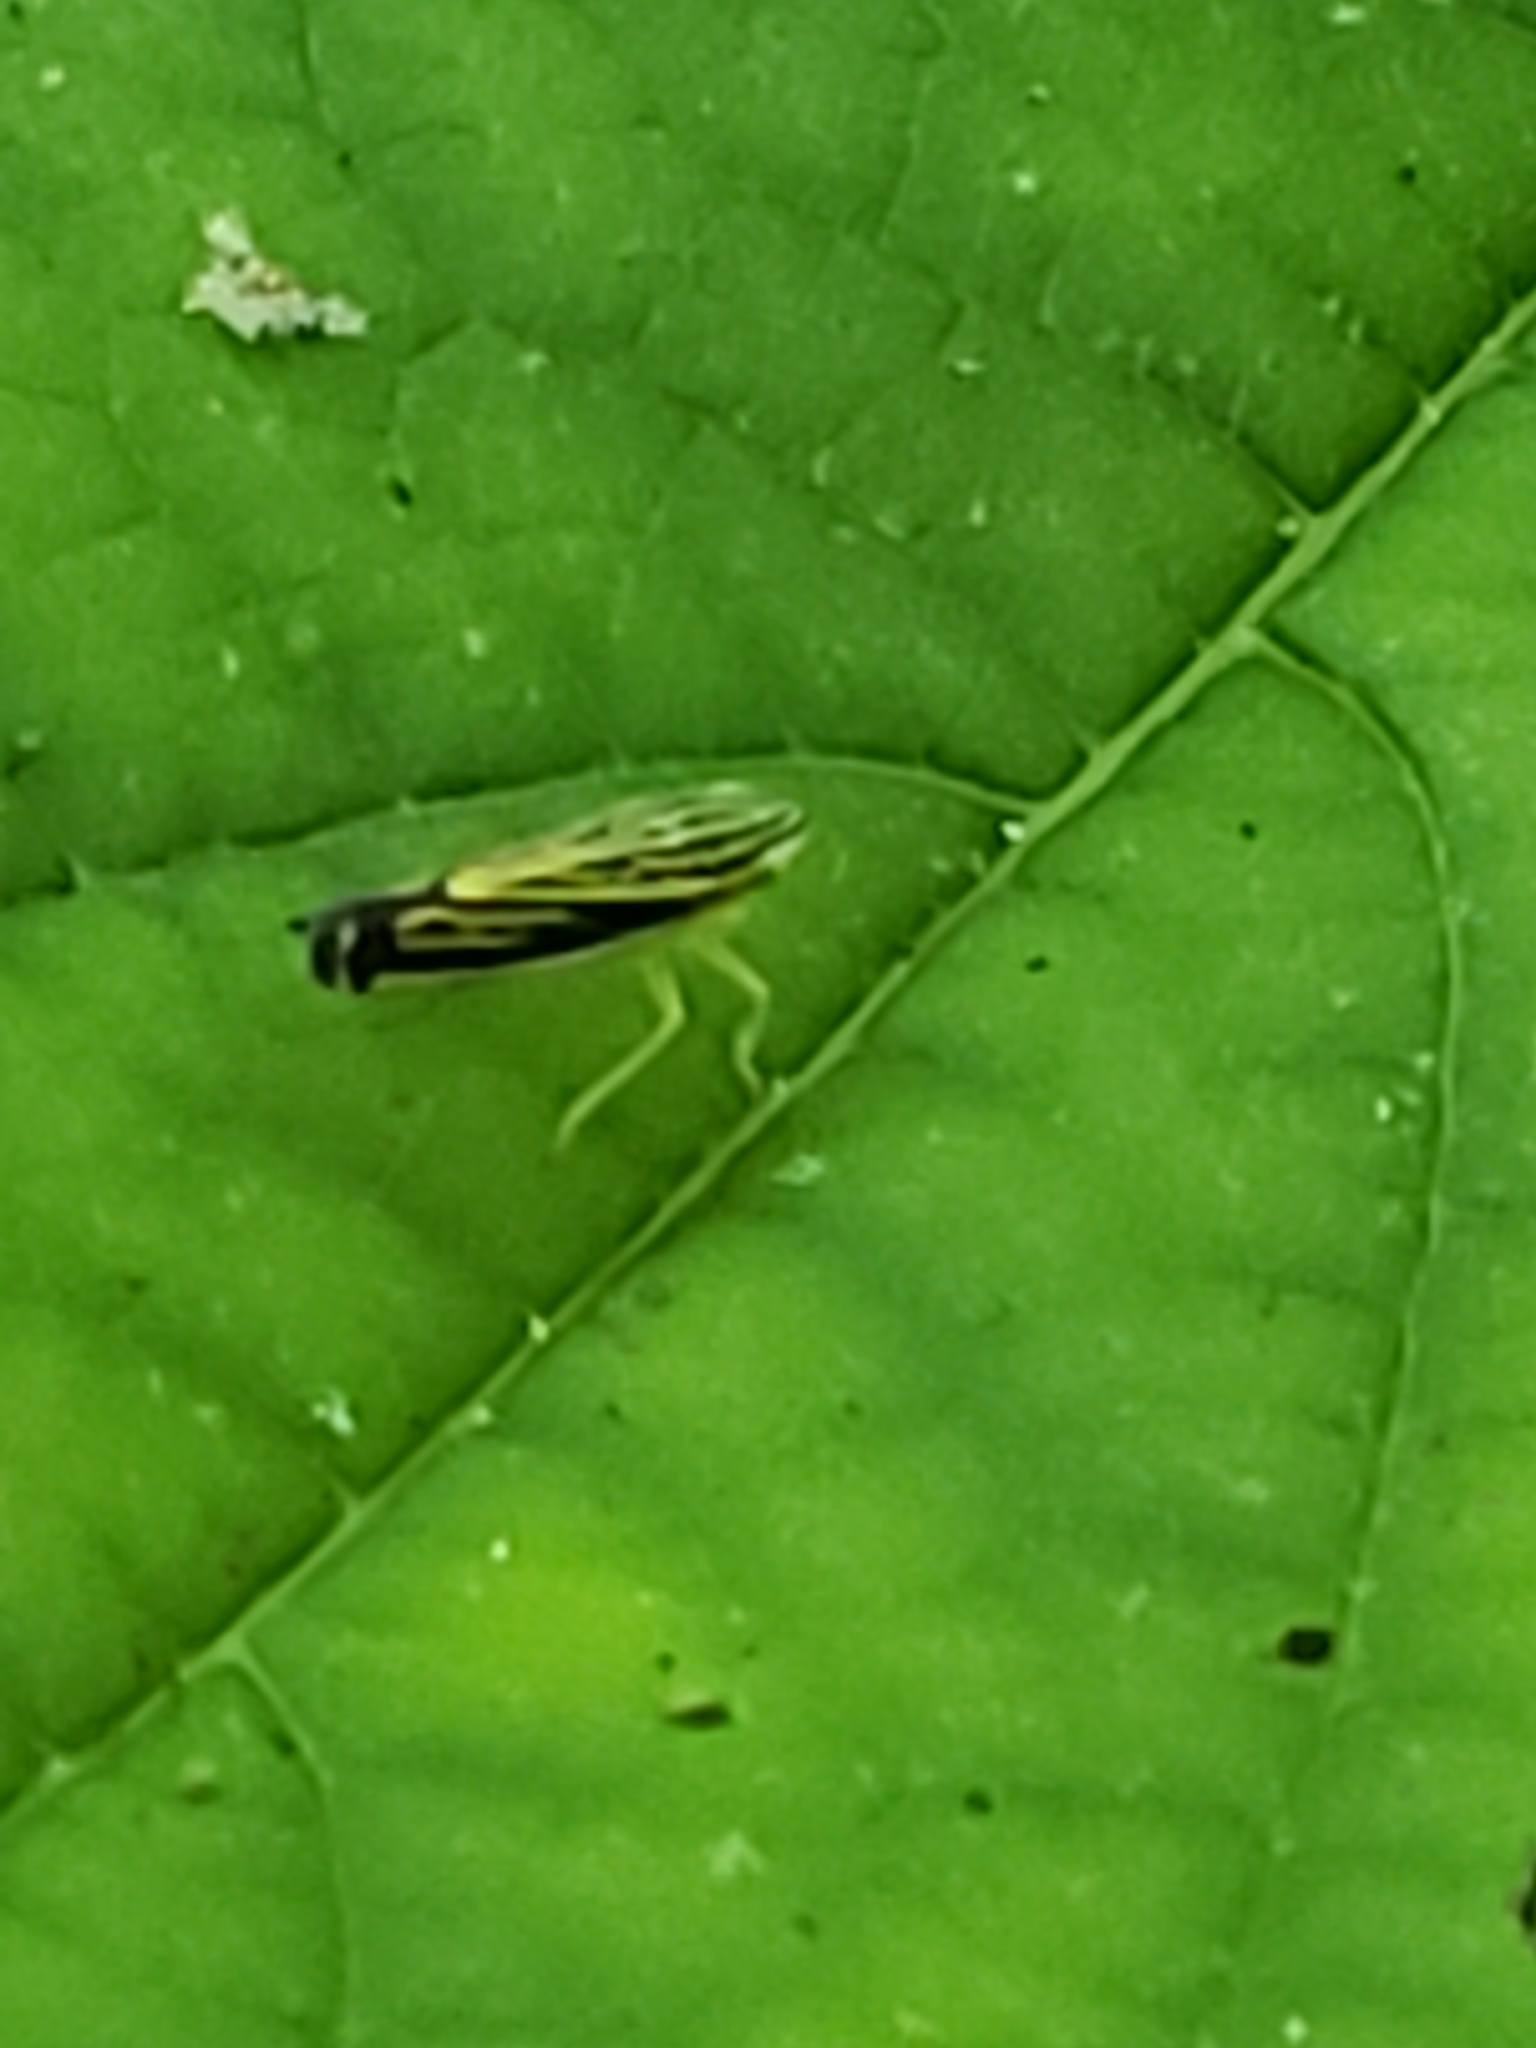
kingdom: Animalia
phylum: Arthropoda
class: Insecta
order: Hemiptera
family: Cicadellidae
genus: Sibovia
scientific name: Sibovia occatoria
